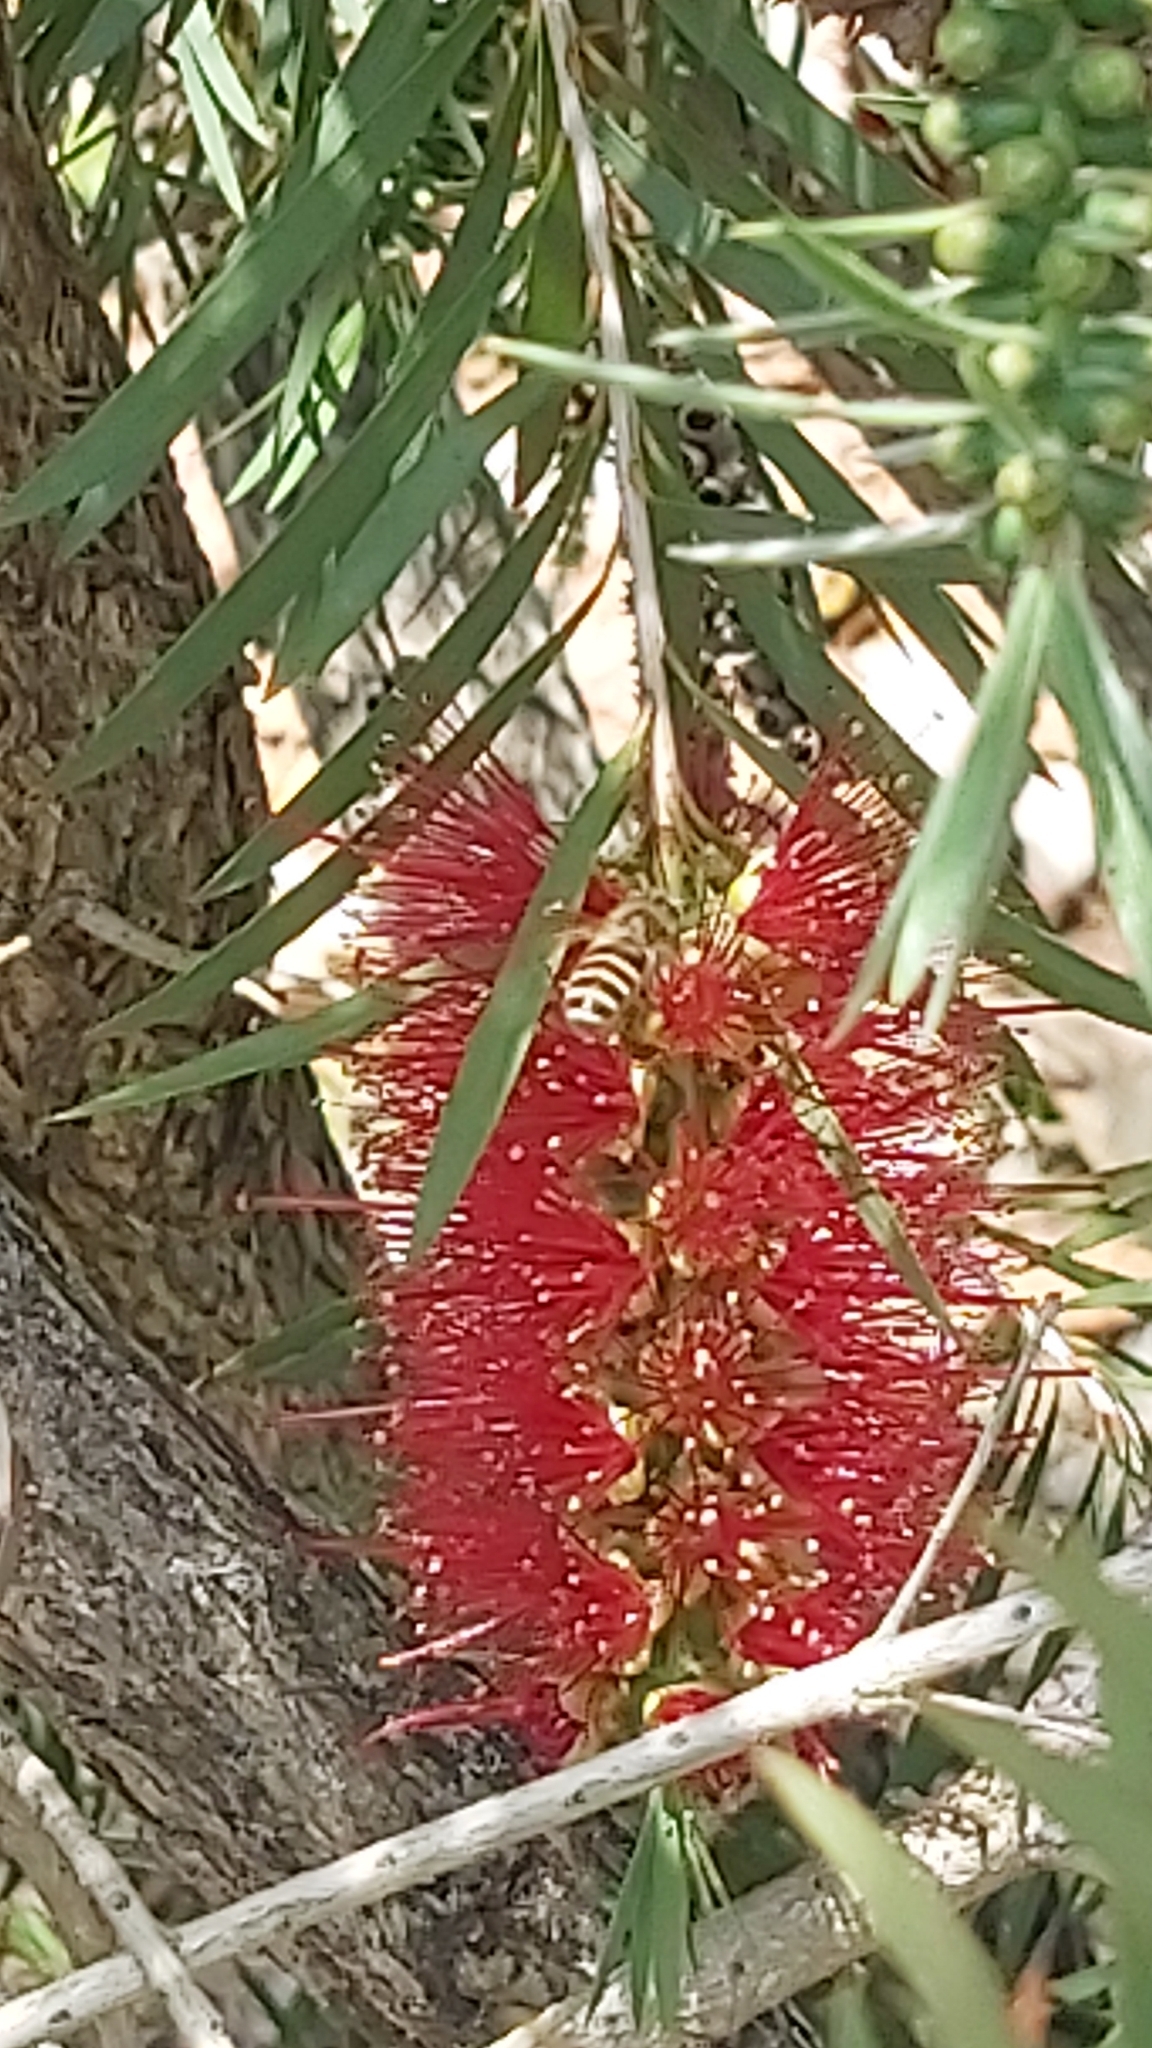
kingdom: Animalia
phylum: Arthropoda
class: Insecta
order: Hymenoptera
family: Apidae
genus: Apis
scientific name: Apis cerana
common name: Honey bee
